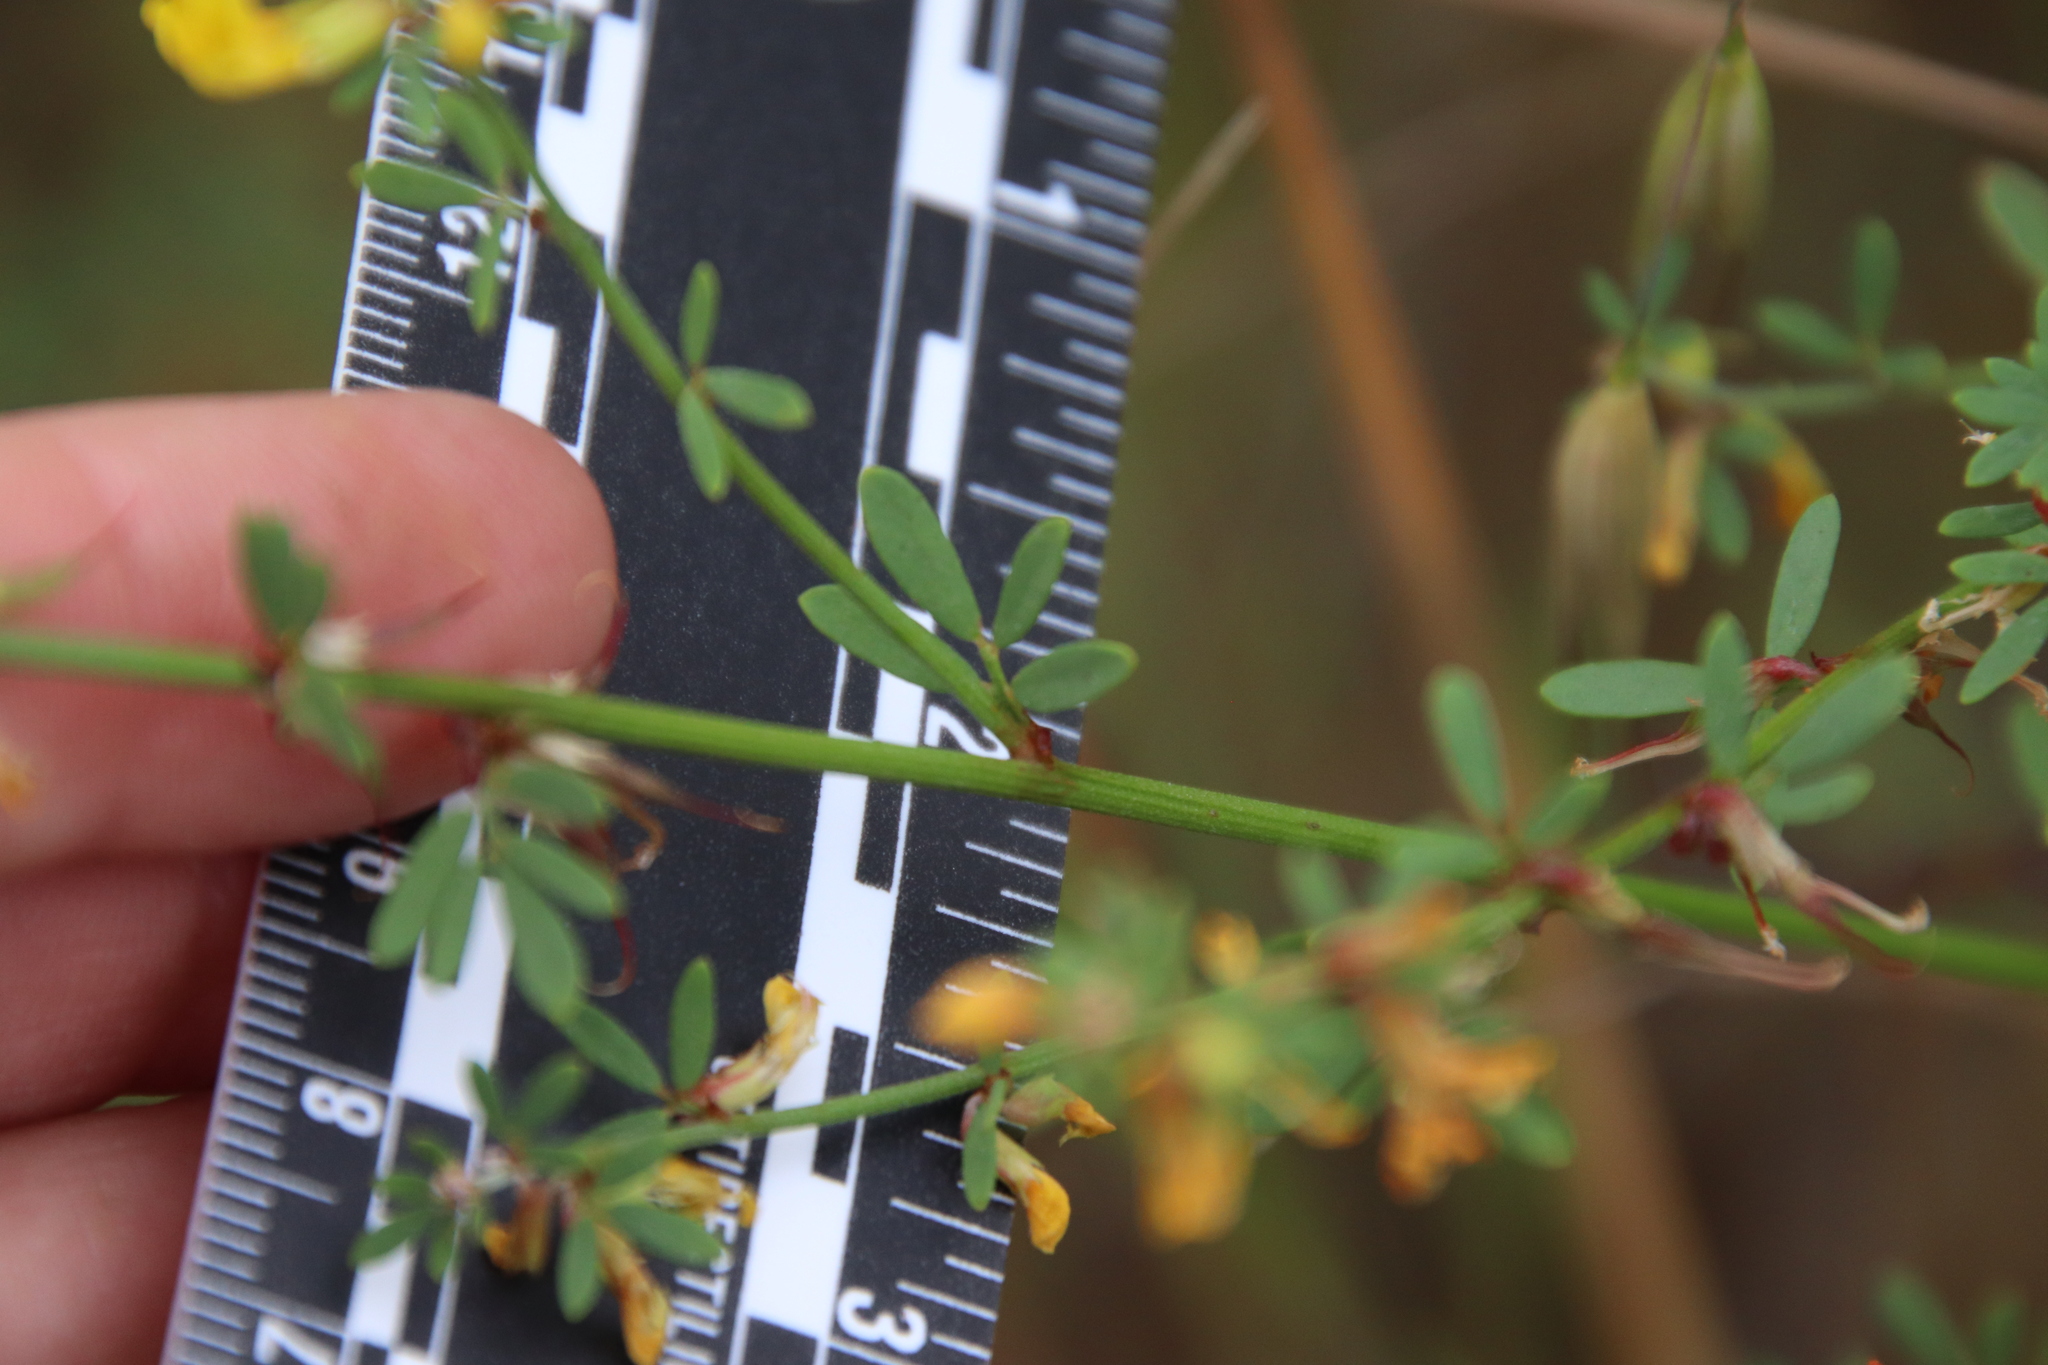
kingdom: Plantae
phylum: Tracheophyta
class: Magnoliopsida
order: Fabales
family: Fabaceae
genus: Acmispon
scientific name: Acmispon glaber
